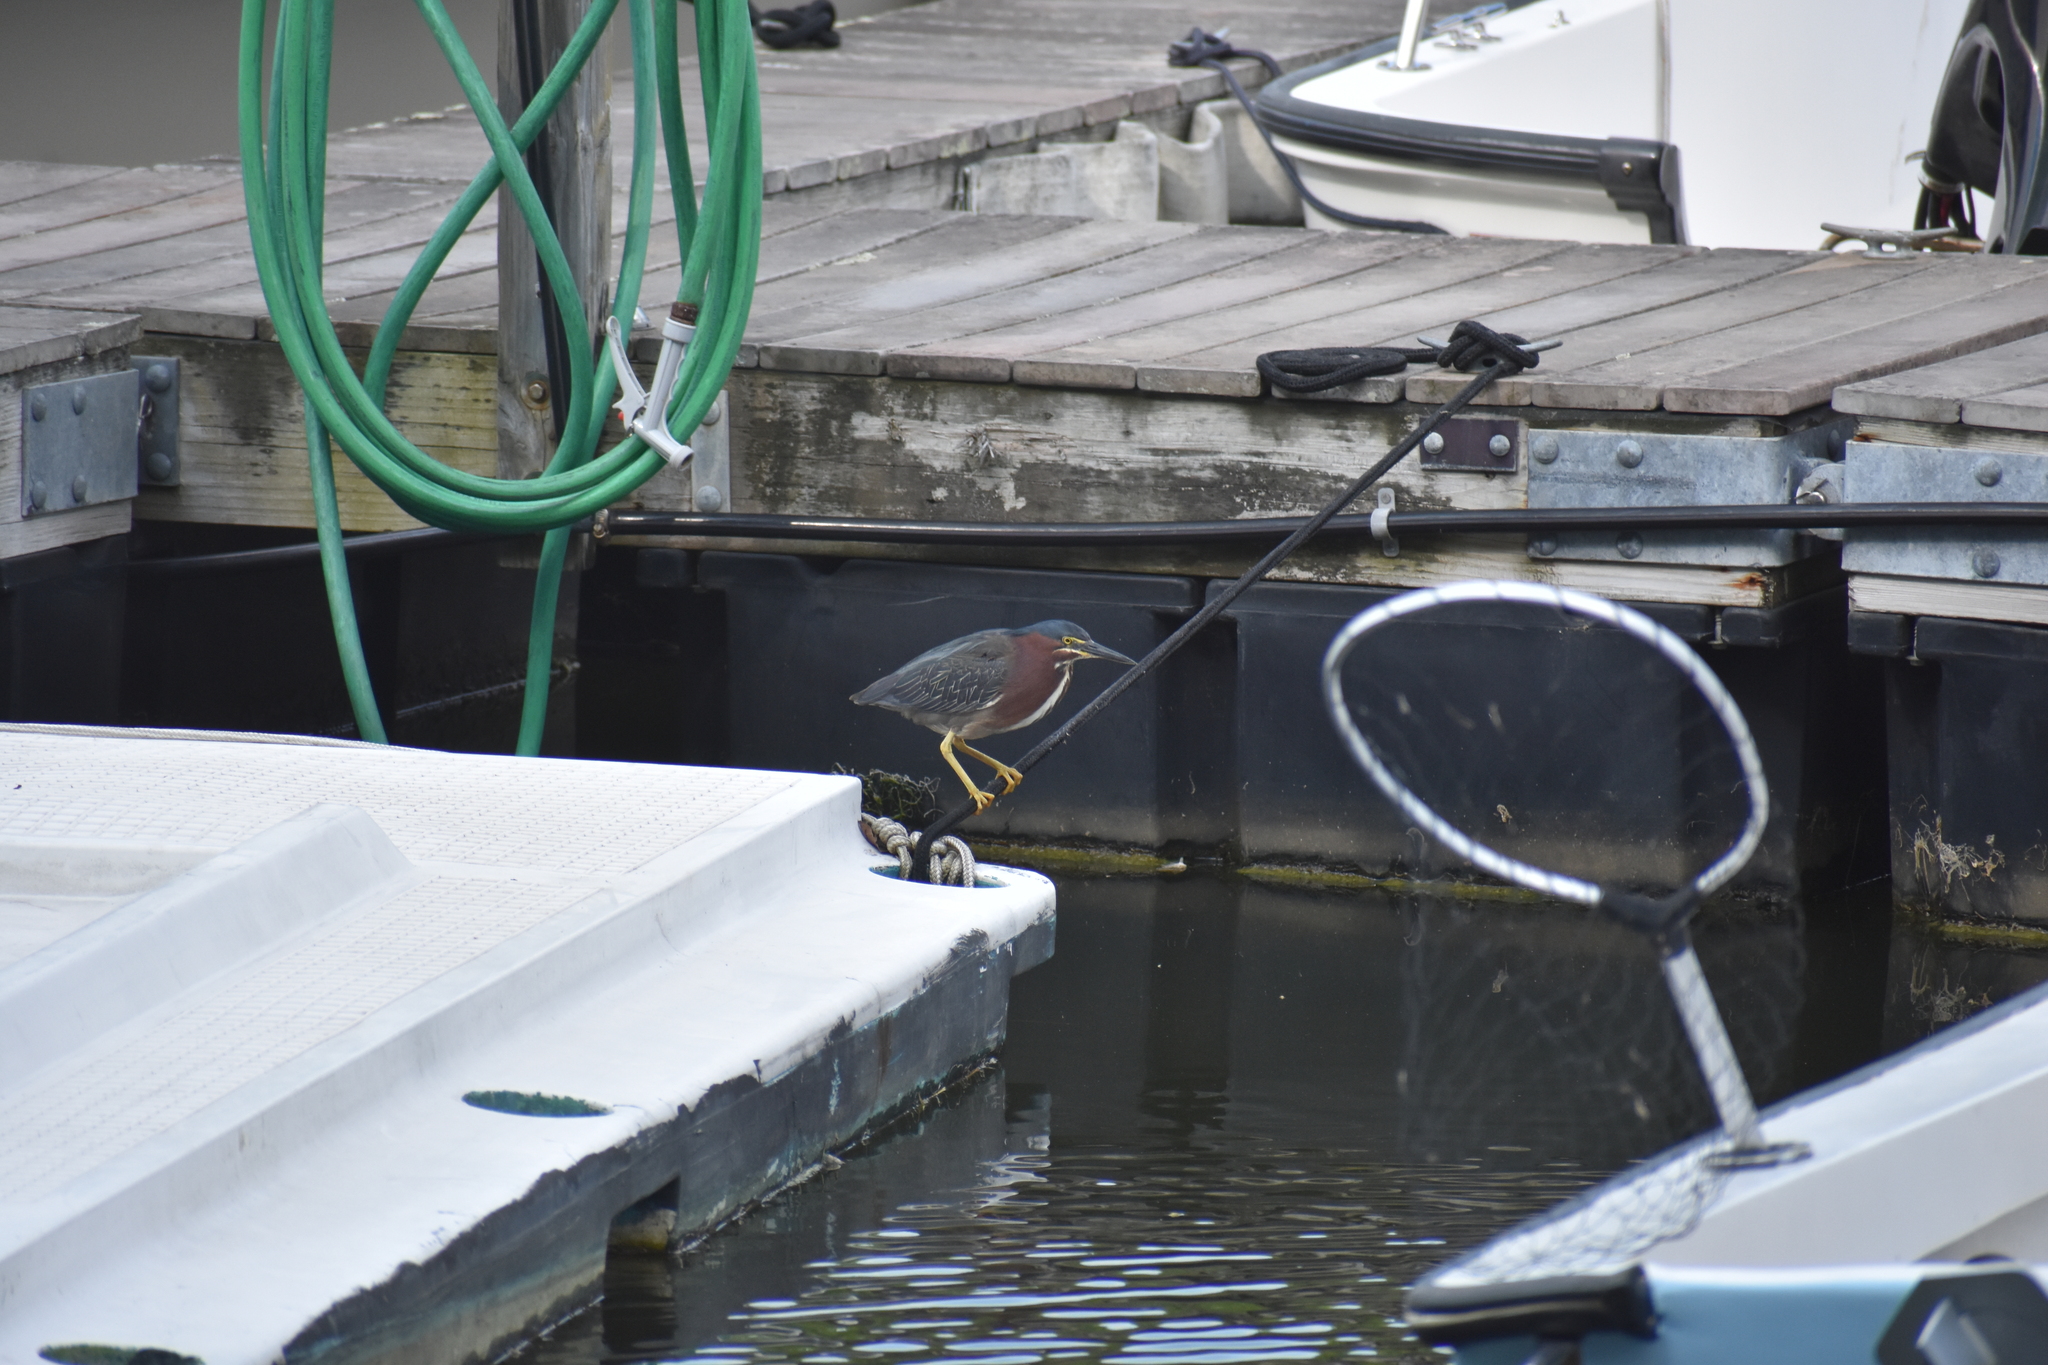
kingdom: Animalia
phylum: Chordata
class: Aves
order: Pelecaniformes
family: Ardeidae
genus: Butorides
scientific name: Butorides virescens
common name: Green heron
